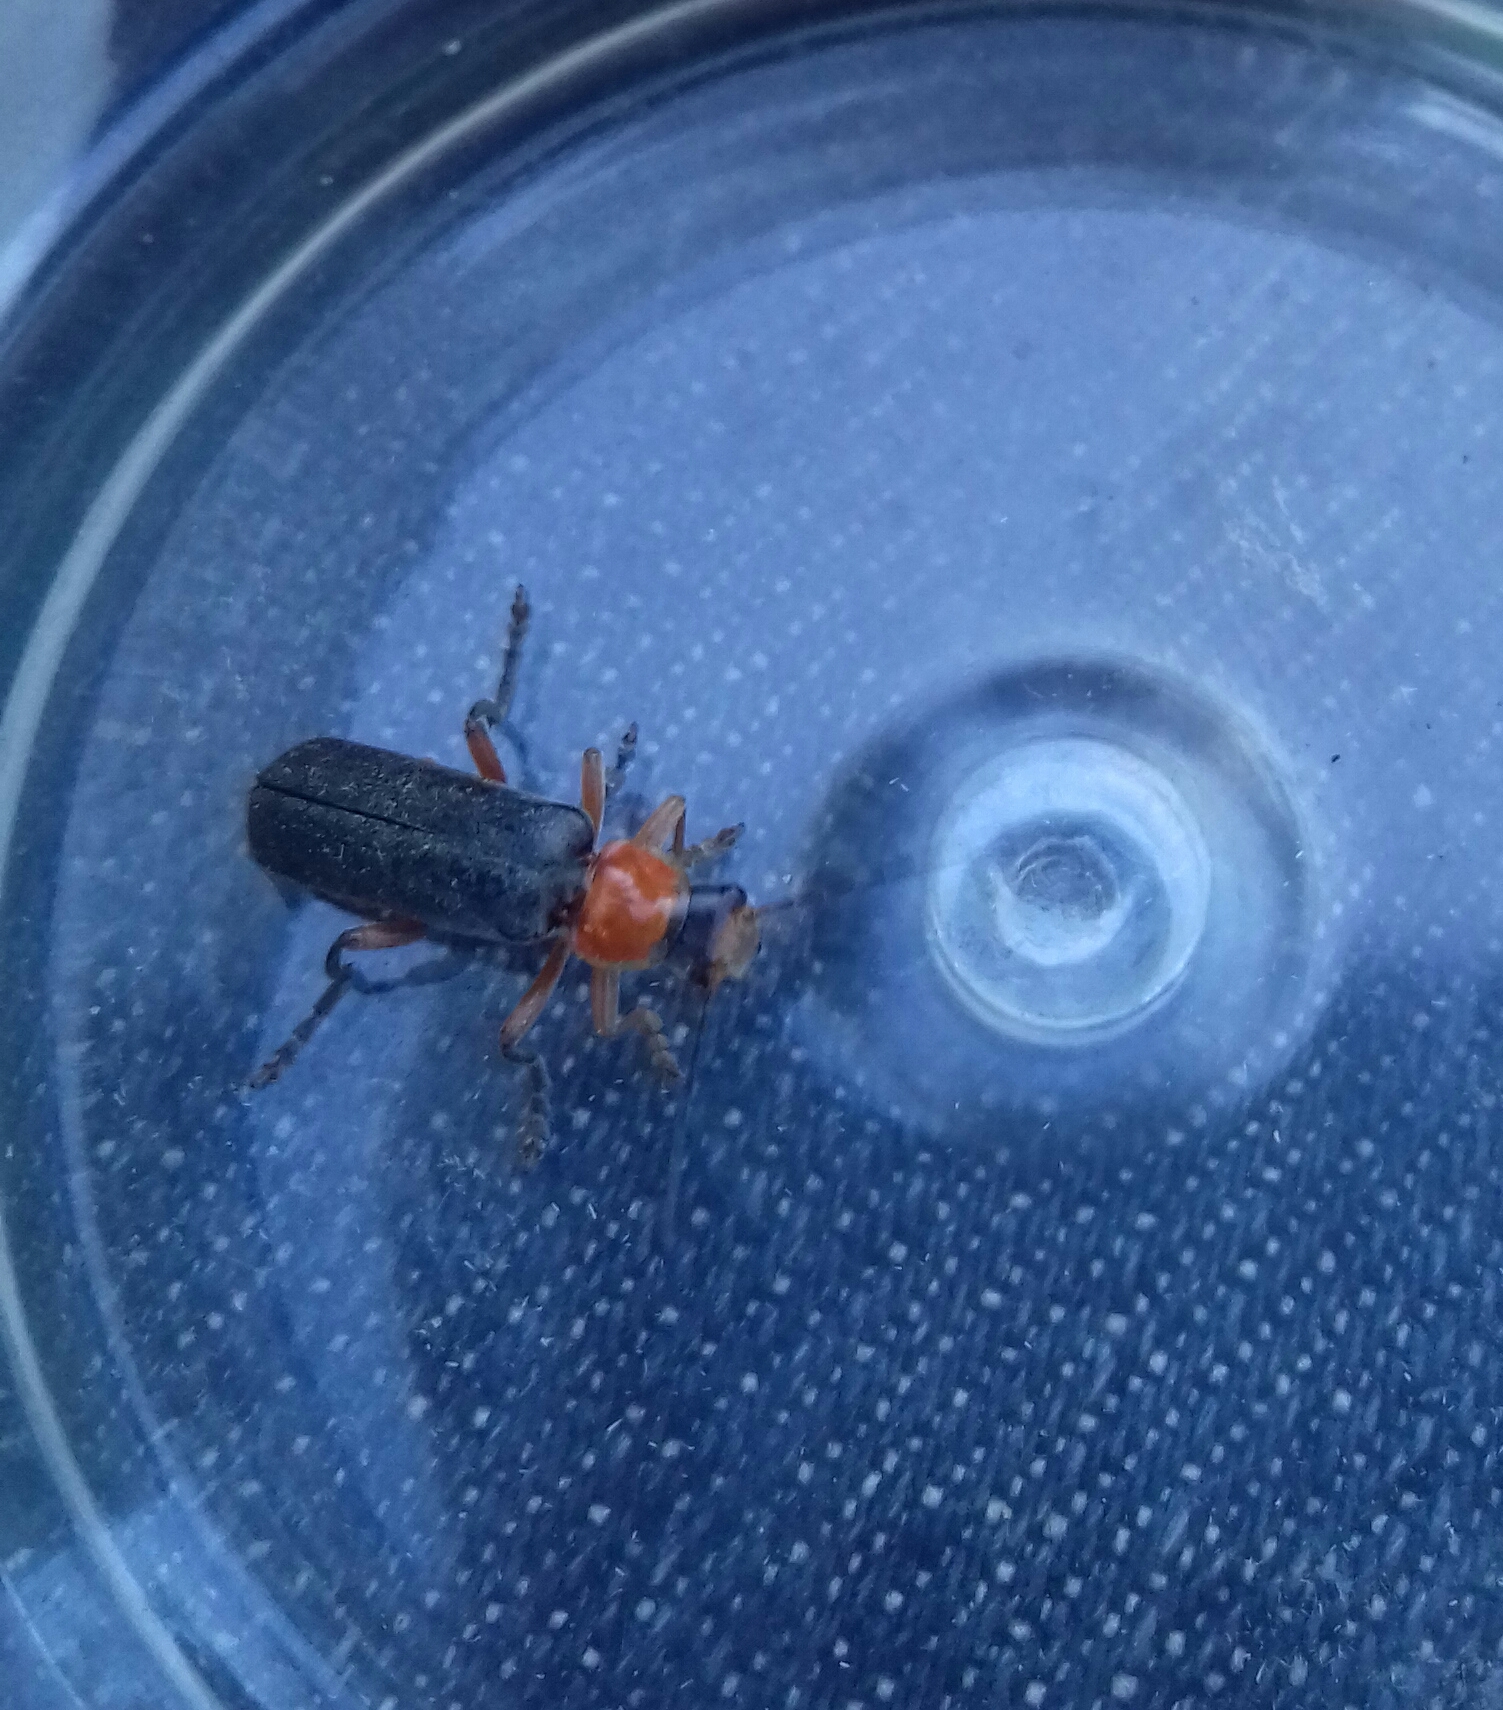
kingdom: Animalia
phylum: Arthropoda
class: Insecta
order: Coleoptera
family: Cantharidae
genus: Cantharis
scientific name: Cantharis pellucida
